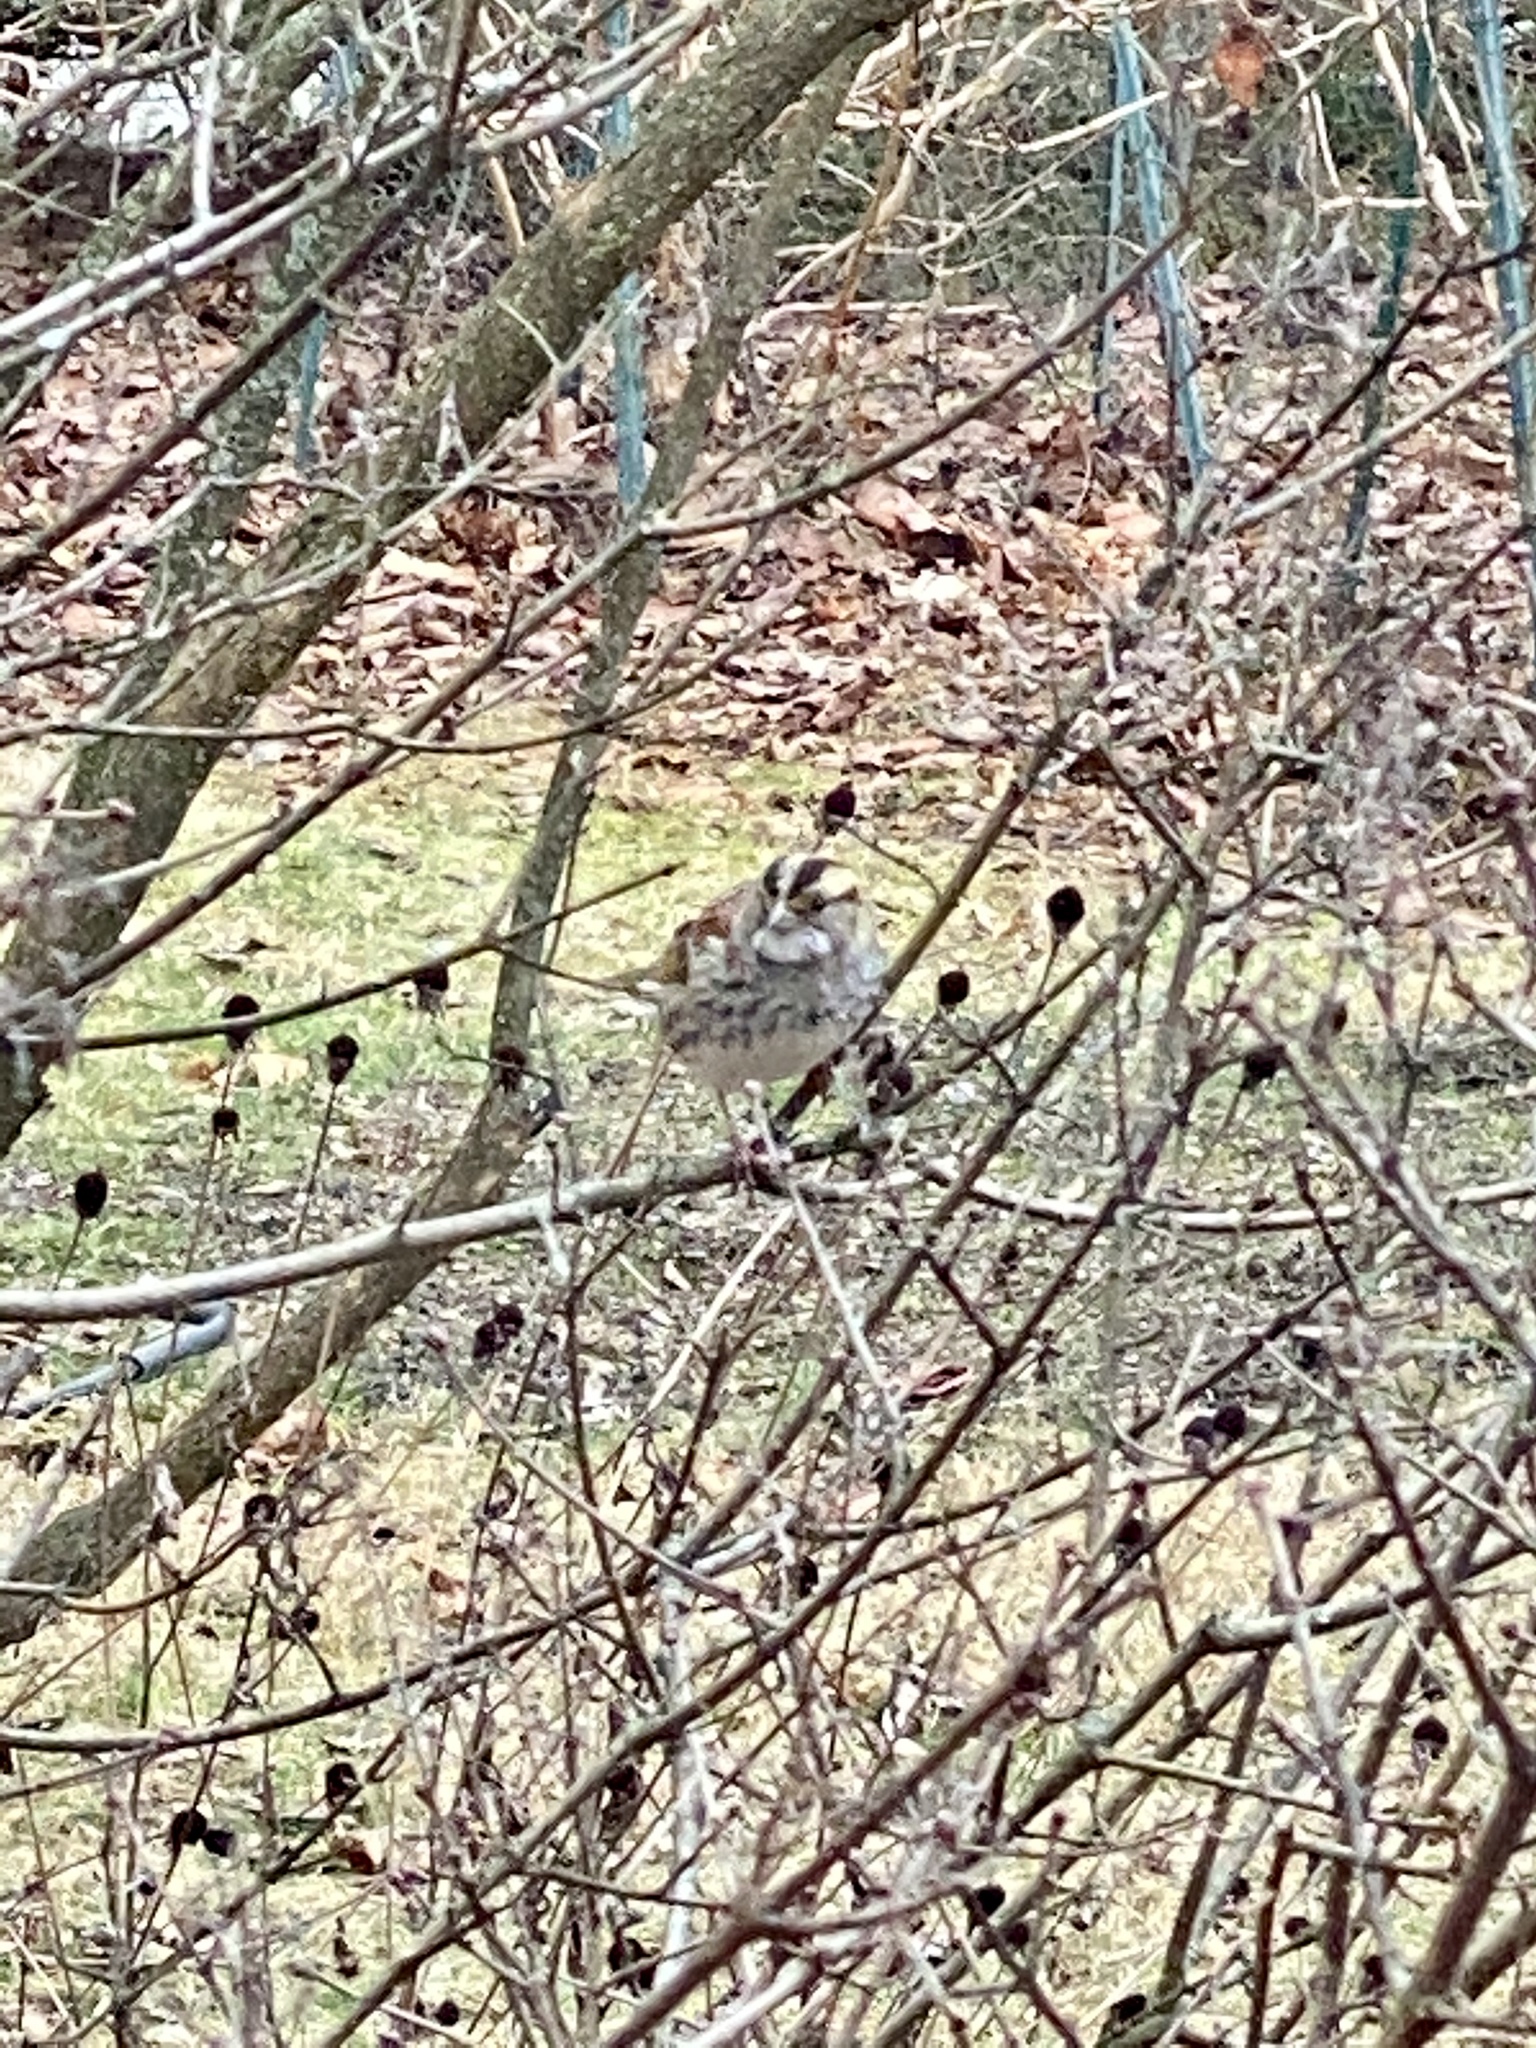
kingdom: Animalia
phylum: Chordata
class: Aves
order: Passeriformes
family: Passerellidae
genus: Zonotrichia
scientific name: Zonotrichia albicollis
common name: White-throated sparrow
